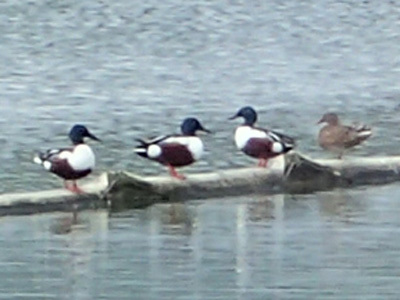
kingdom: Animalia
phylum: Chordata
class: Aves
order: Anseriformes
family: Anatidae
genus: Spatula
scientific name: Spatula clypeata
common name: Northern shoveler
